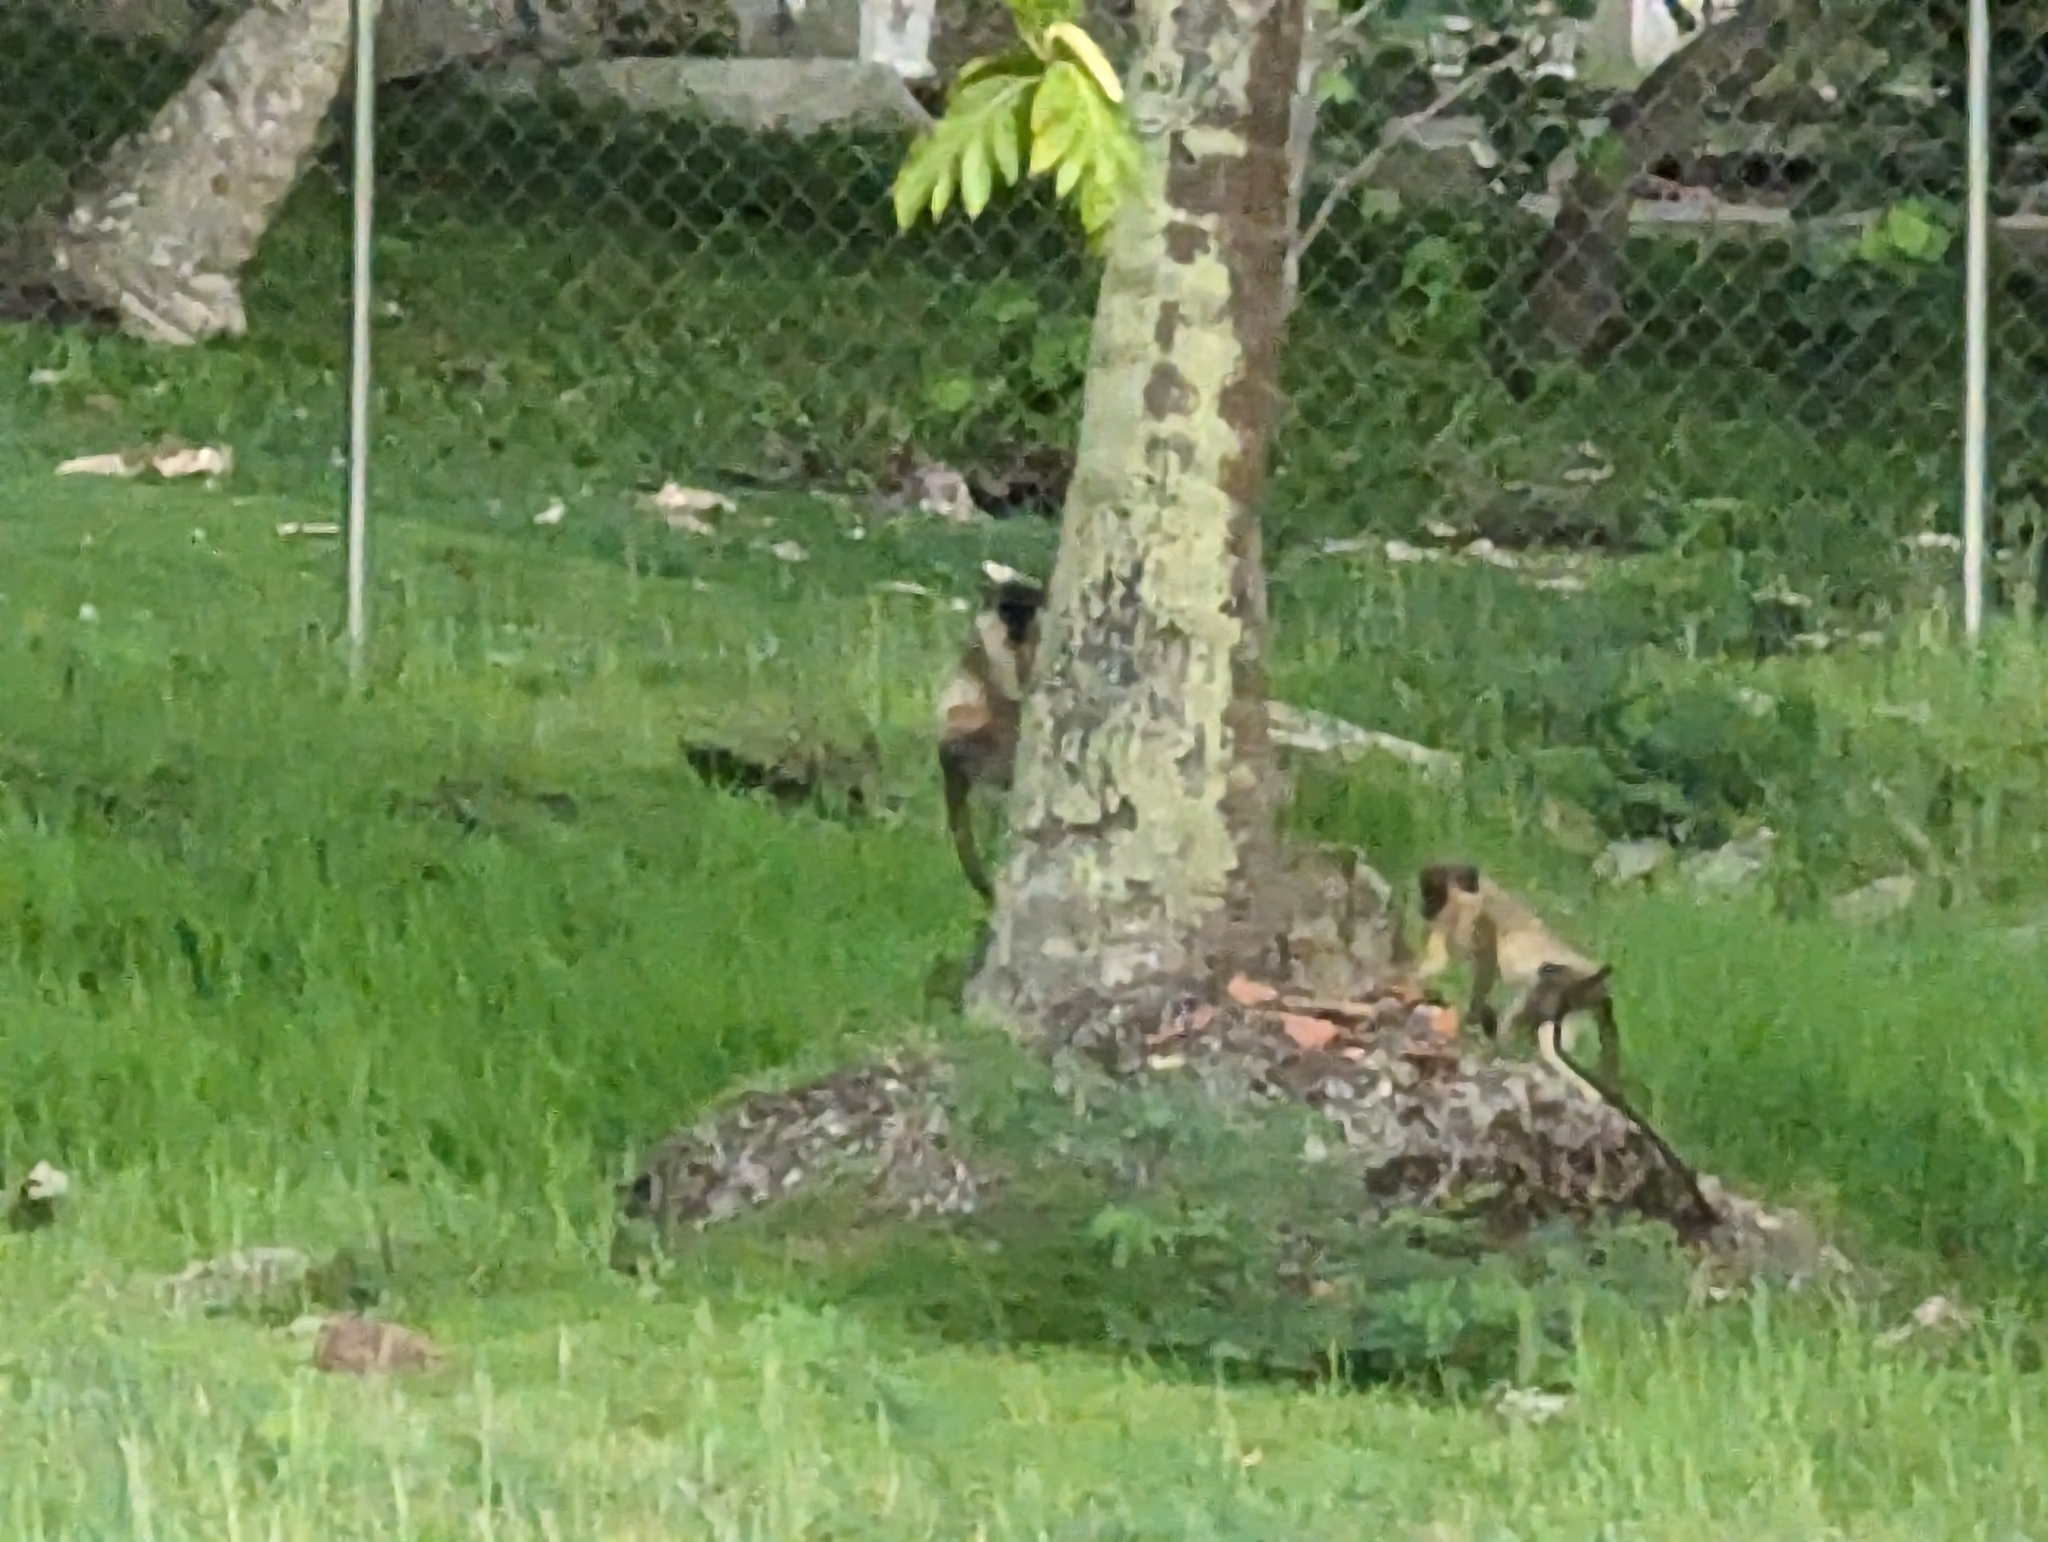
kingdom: Animalia
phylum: Chordata
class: Mammalia
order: Primates
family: Cercopithecidae
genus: Chlorocebus
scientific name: Chlorocebus sabaeus
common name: Green monkey
